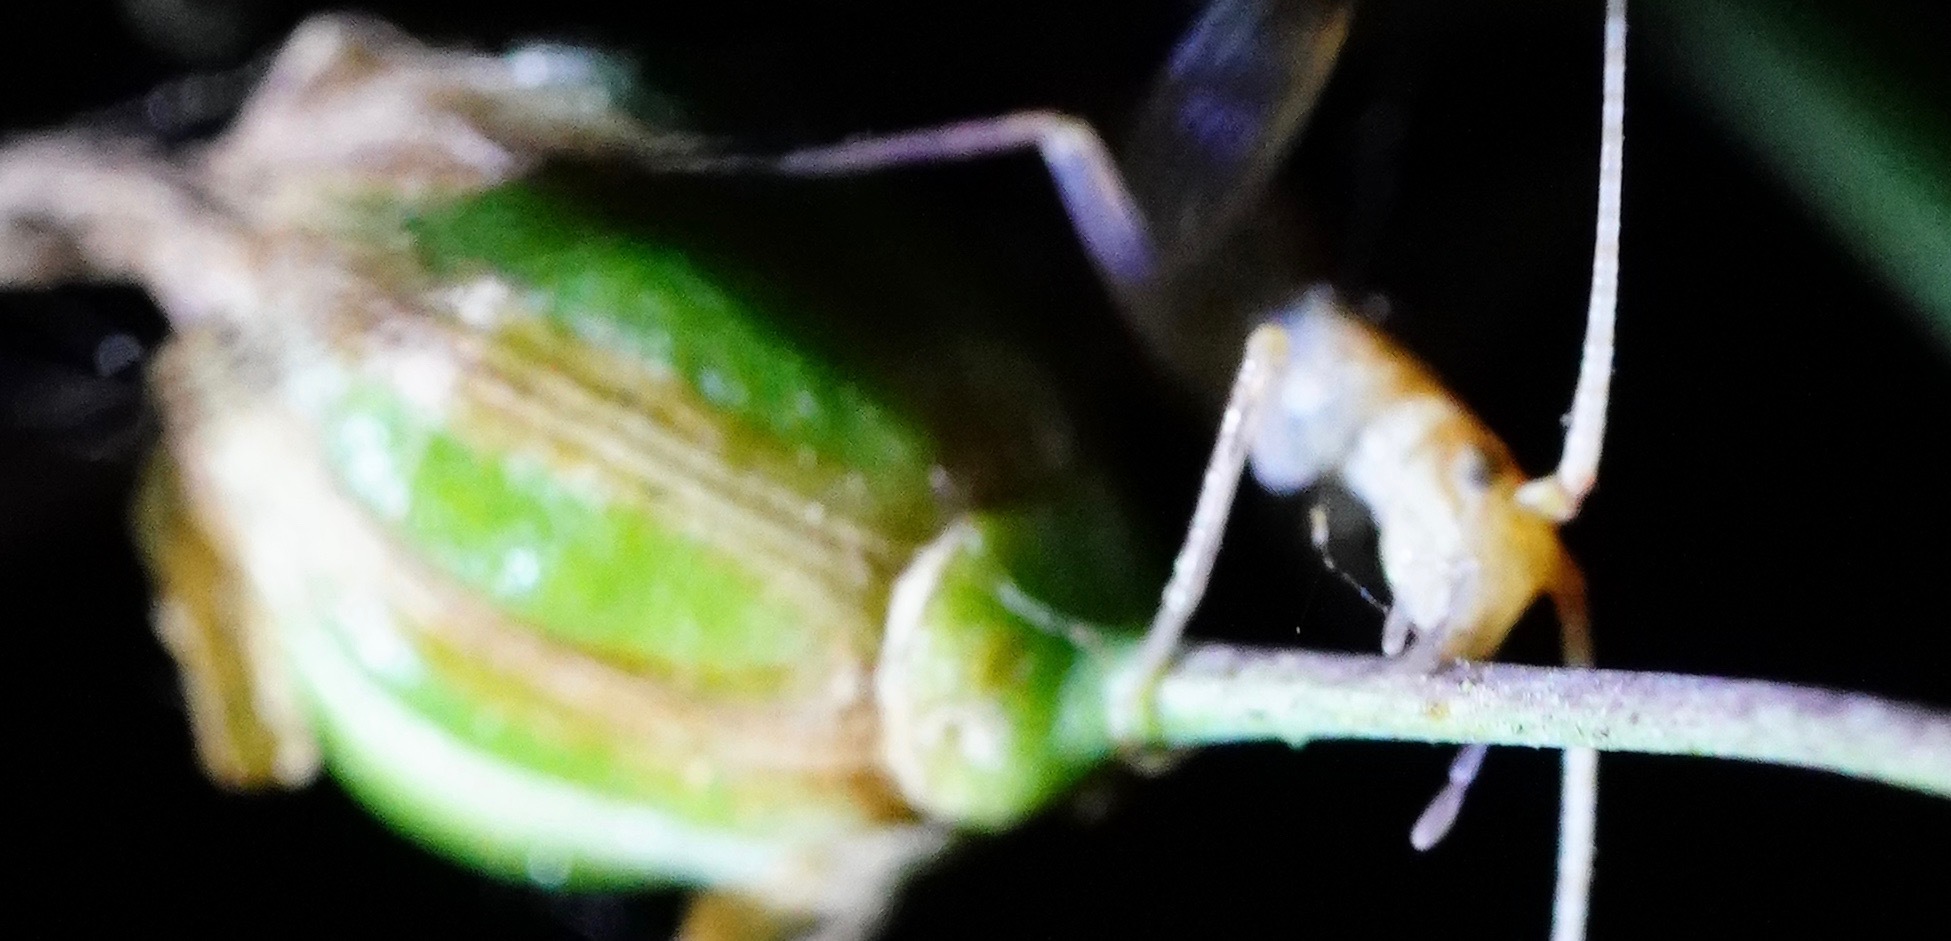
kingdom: Animalia
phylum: Arthropoda
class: Insecta
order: Orthoptera
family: Gryllidae
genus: Oecanthus
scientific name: Oecanthus californicus
